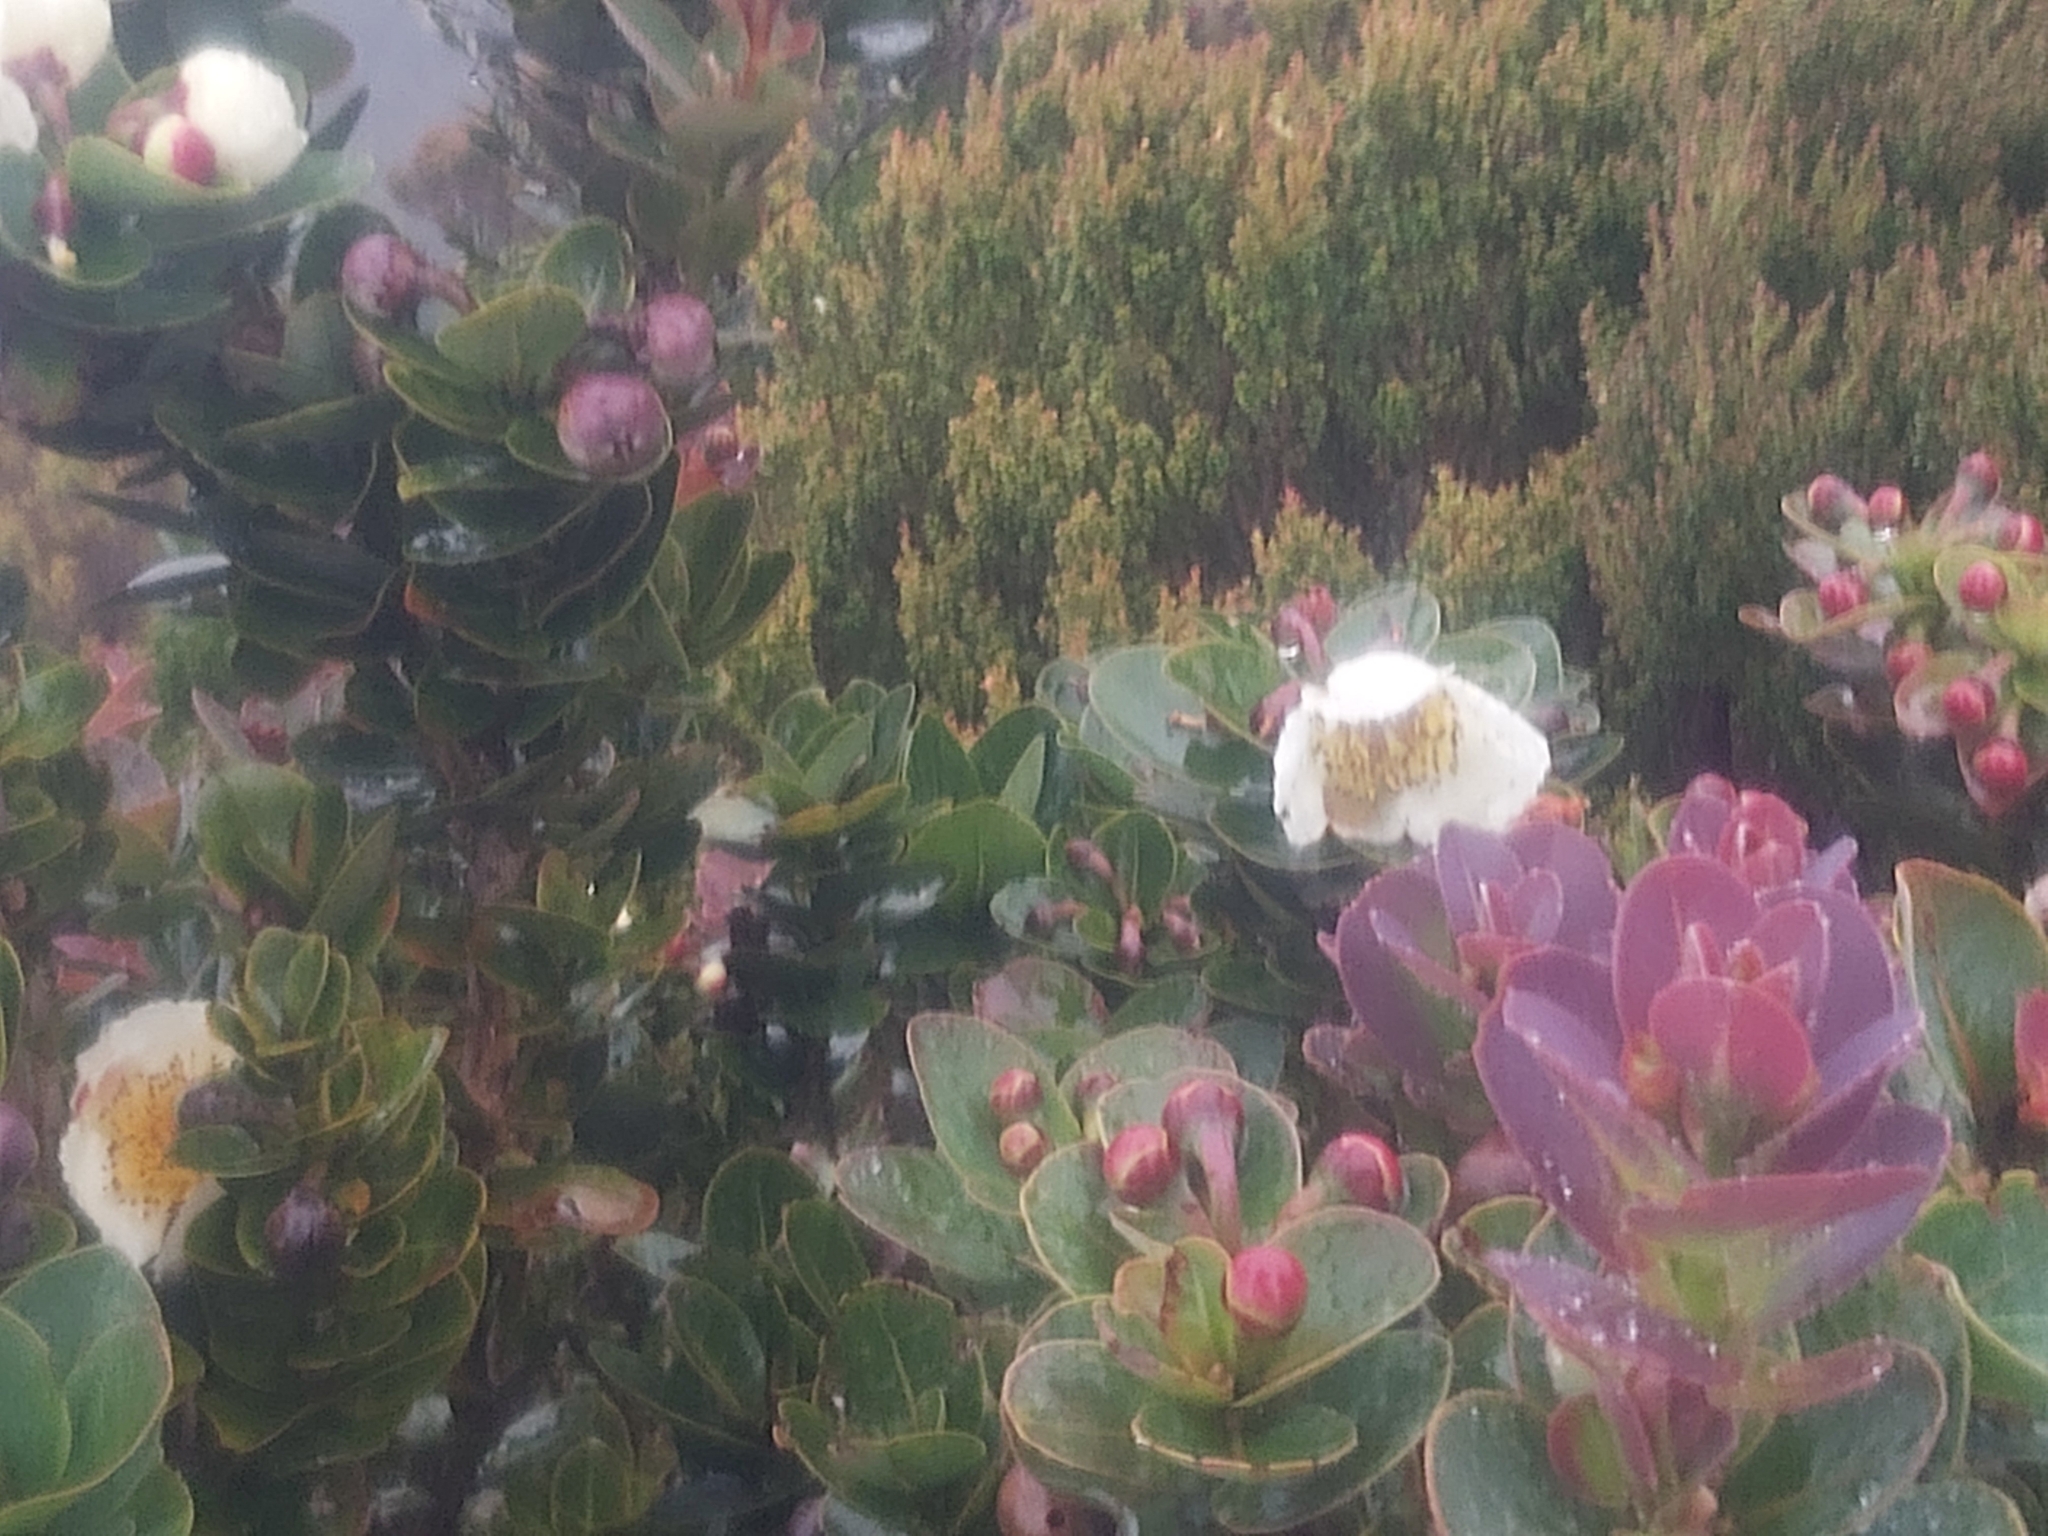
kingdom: Plantae
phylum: Tracheophyta
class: Magnoliopsida
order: Ericales
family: Theaceae
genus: Schima
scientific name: Schima brevifolia
